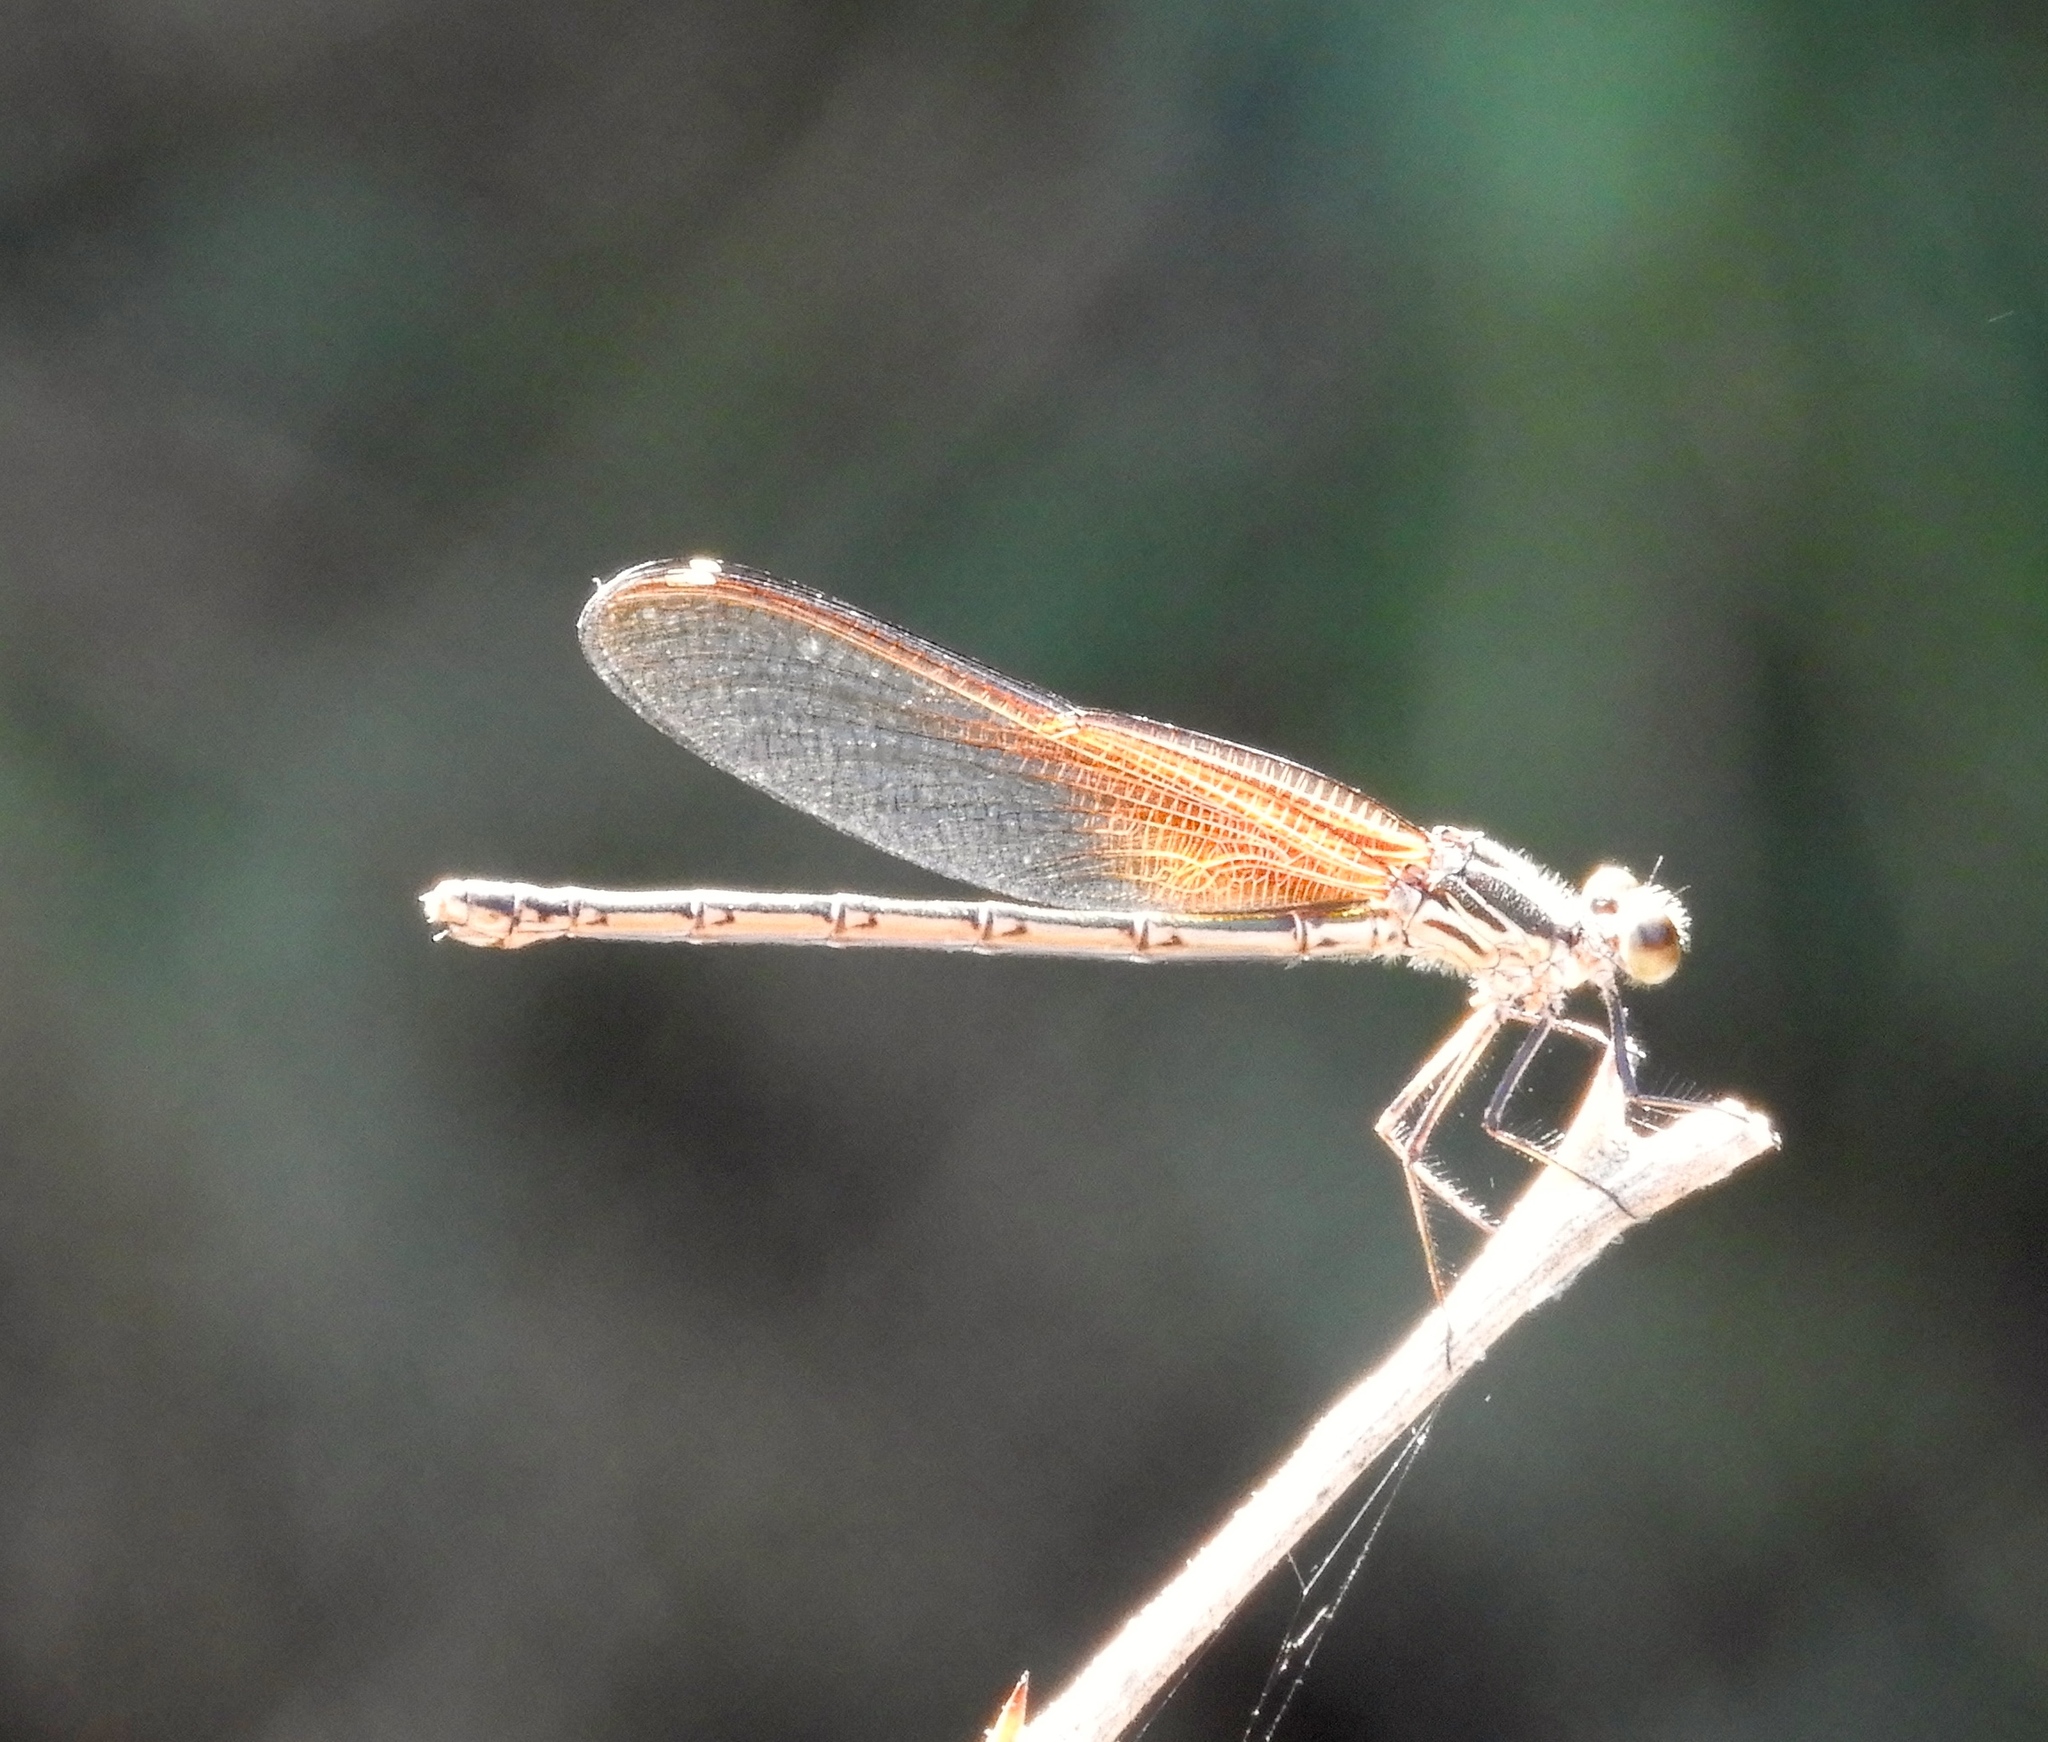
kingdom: Animalia
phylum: Arthropoda
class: Insecta
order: Odonata
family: Calopterygidae
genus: Hetaerina
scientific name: Hetaerina americana
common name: American rubyspot
